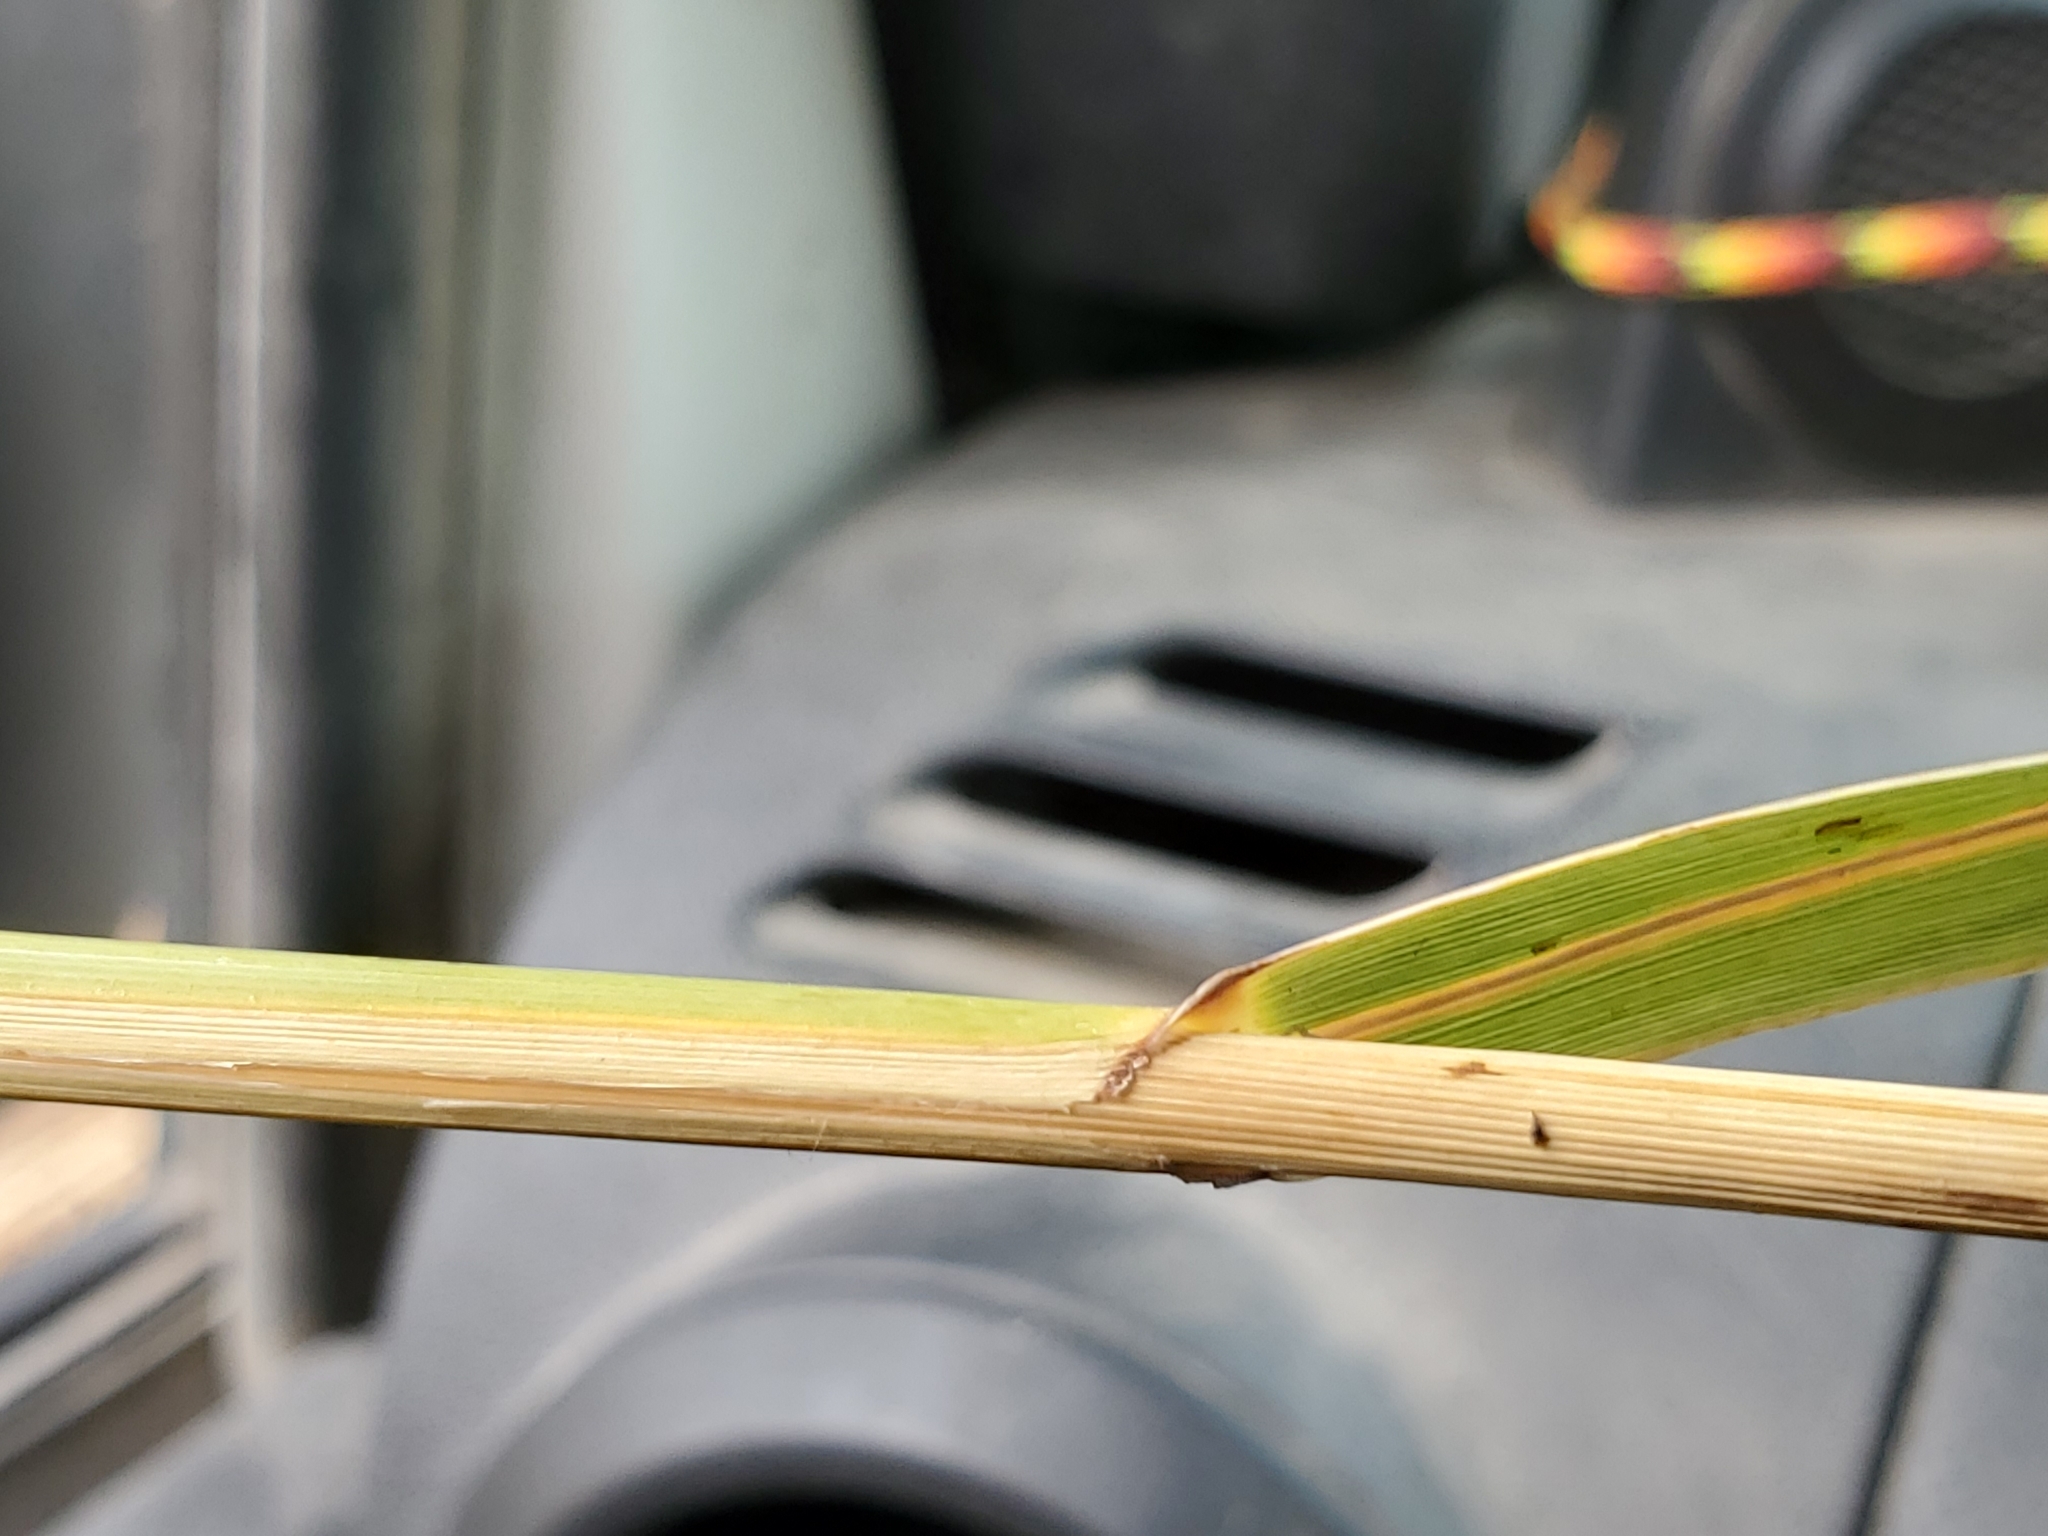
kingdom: Plantae
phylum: Tracheophyta
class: Liliopsida
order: Poales
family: Poaceae
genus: Phragmites
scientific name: Phragmites australis
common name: Common reed
